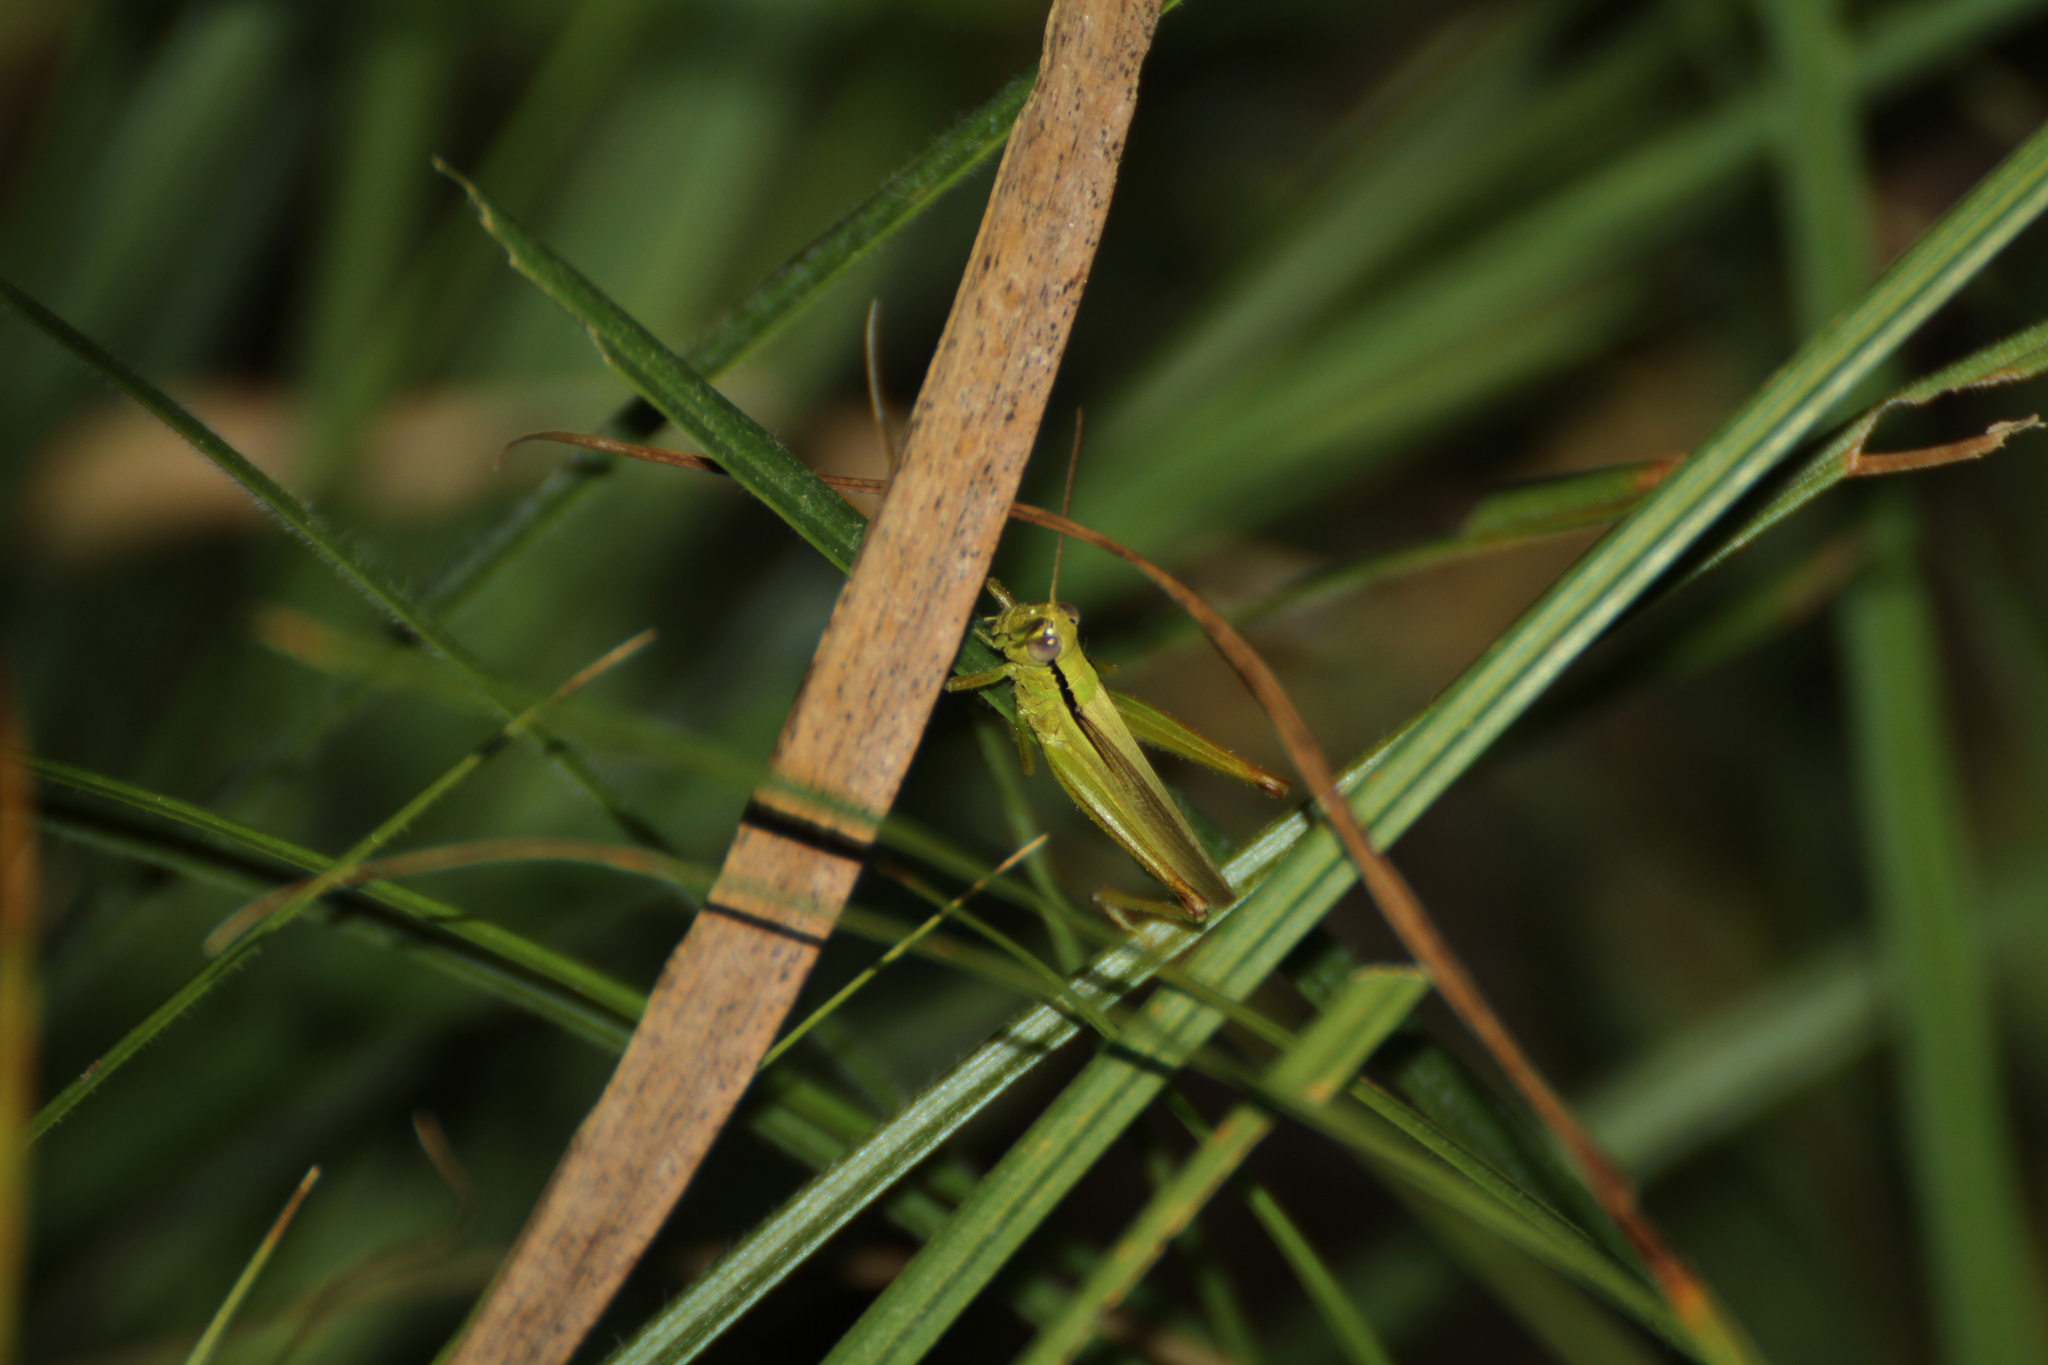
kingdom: Animalia
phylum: Arthropoda
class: Insecta
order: Orthoptera
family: Acrididae
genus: Mecostethus
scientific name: Mecostethus parapleurus
